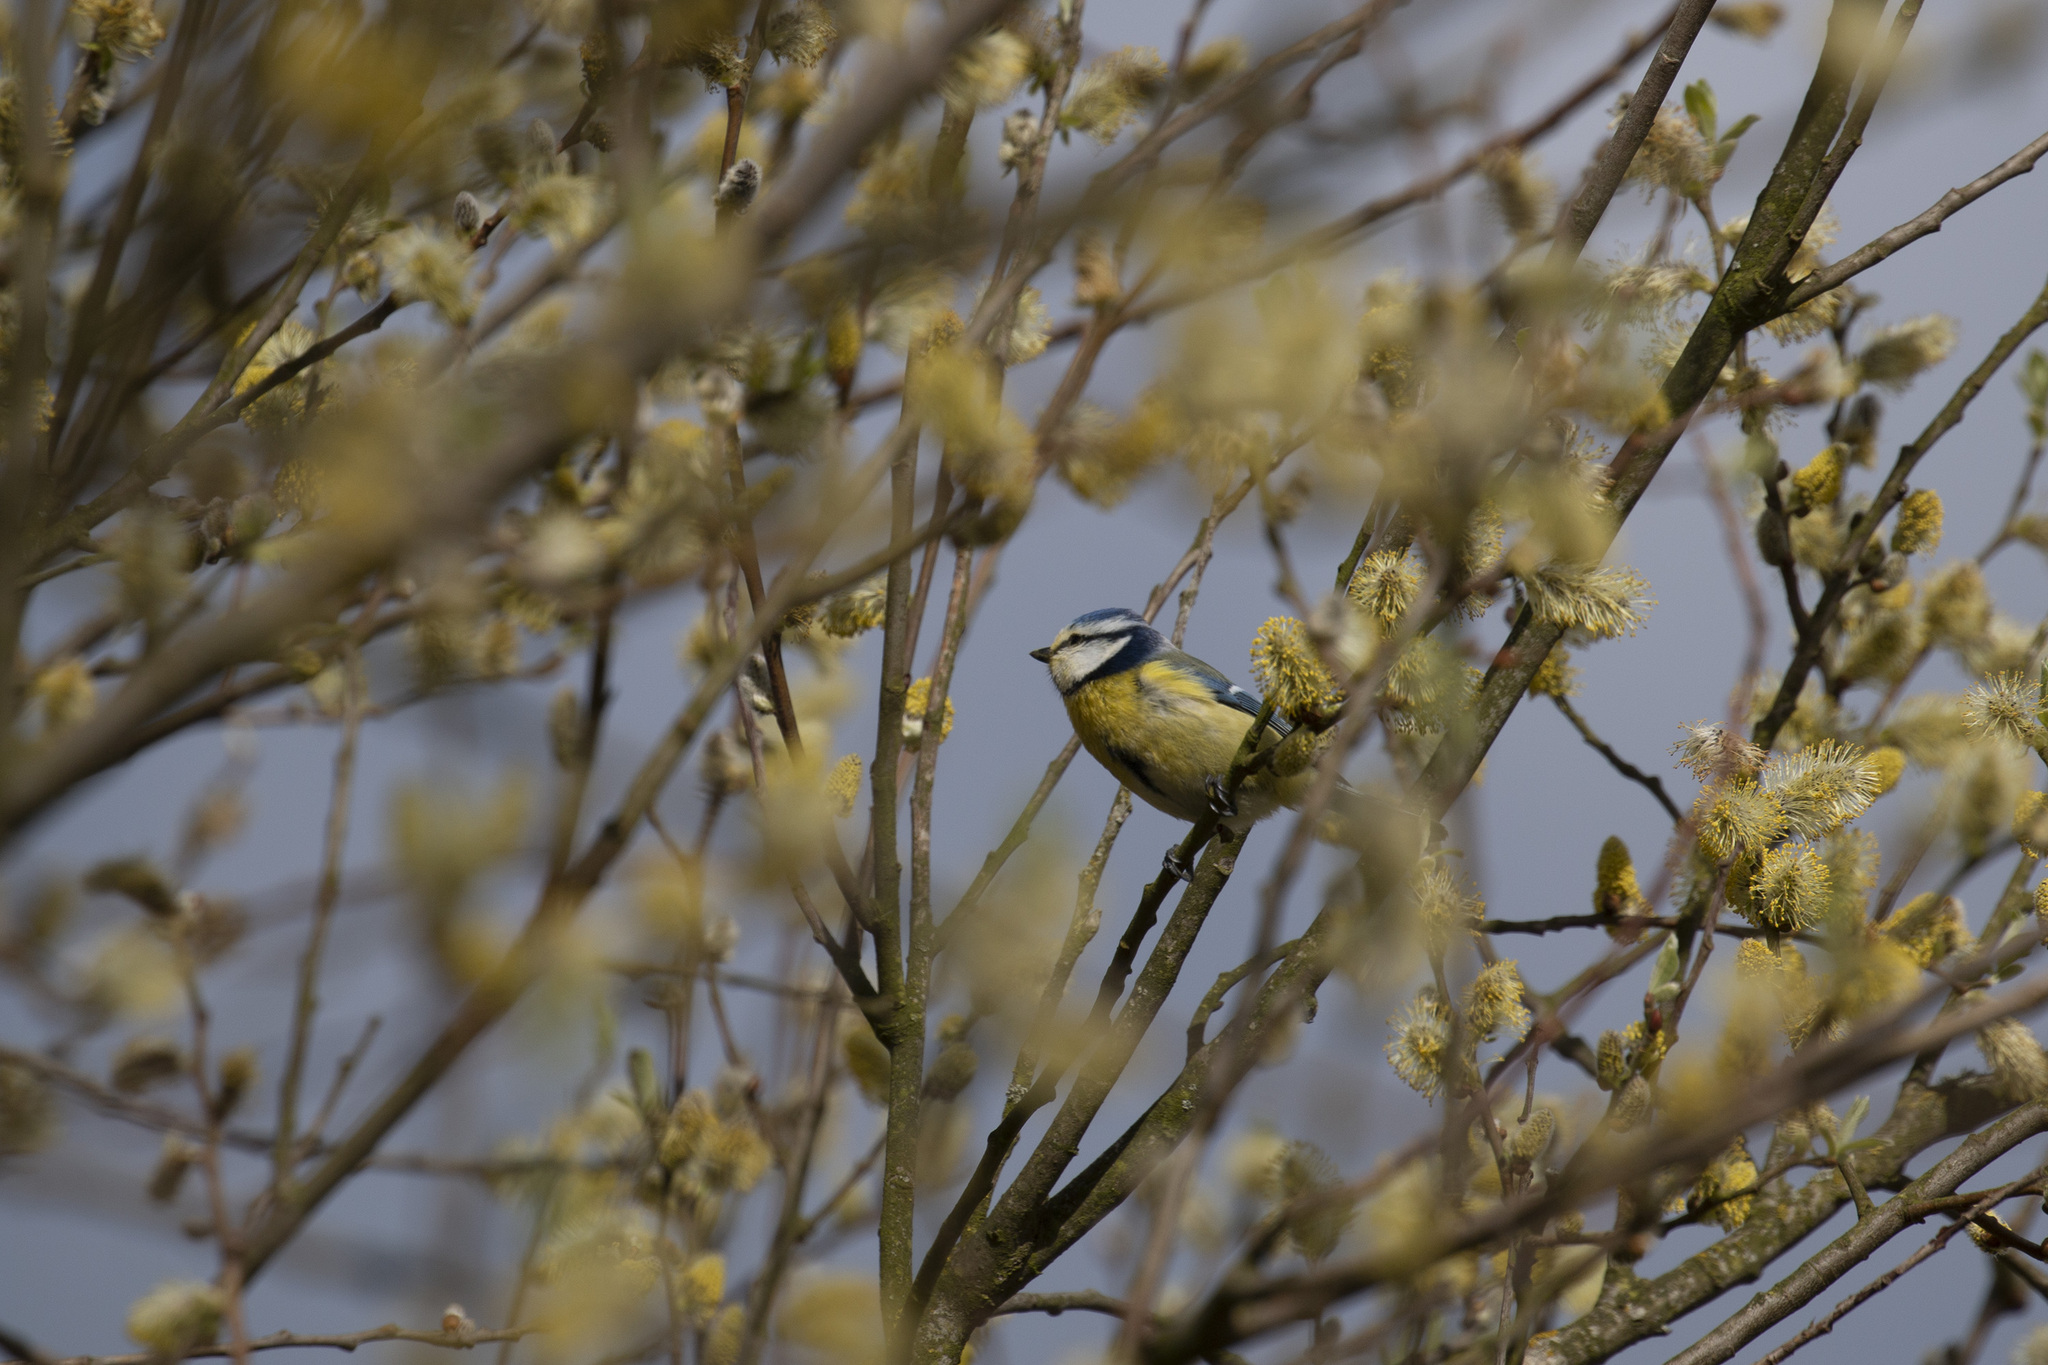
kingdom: Animalia
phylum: Chordata
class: Aves
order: Passeriformes
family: Paridae
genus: Cyanistes
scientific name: Cyanistes caeruleus
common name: Eurasian blue tit
